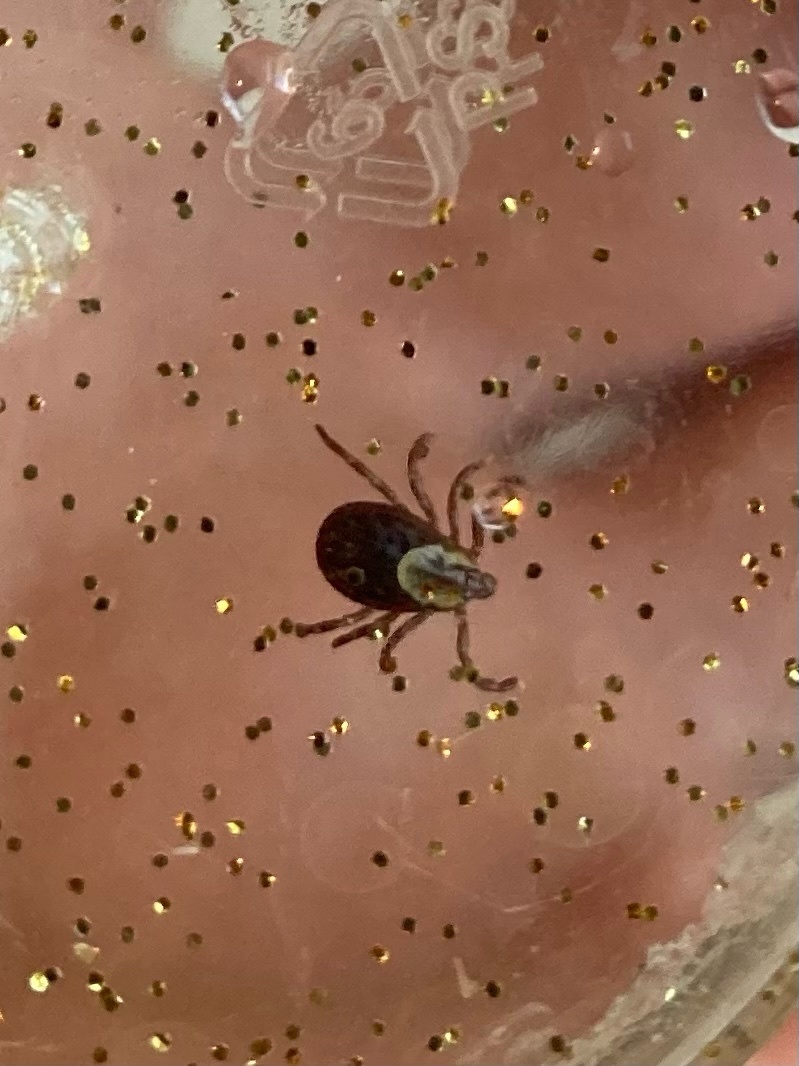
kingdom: Animalia
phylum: Arthropoda
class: Arachnida
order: Ixodida
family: Ixodidae
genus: Dermacentor
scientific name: Dermacentor variabilis
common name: American dog tick
